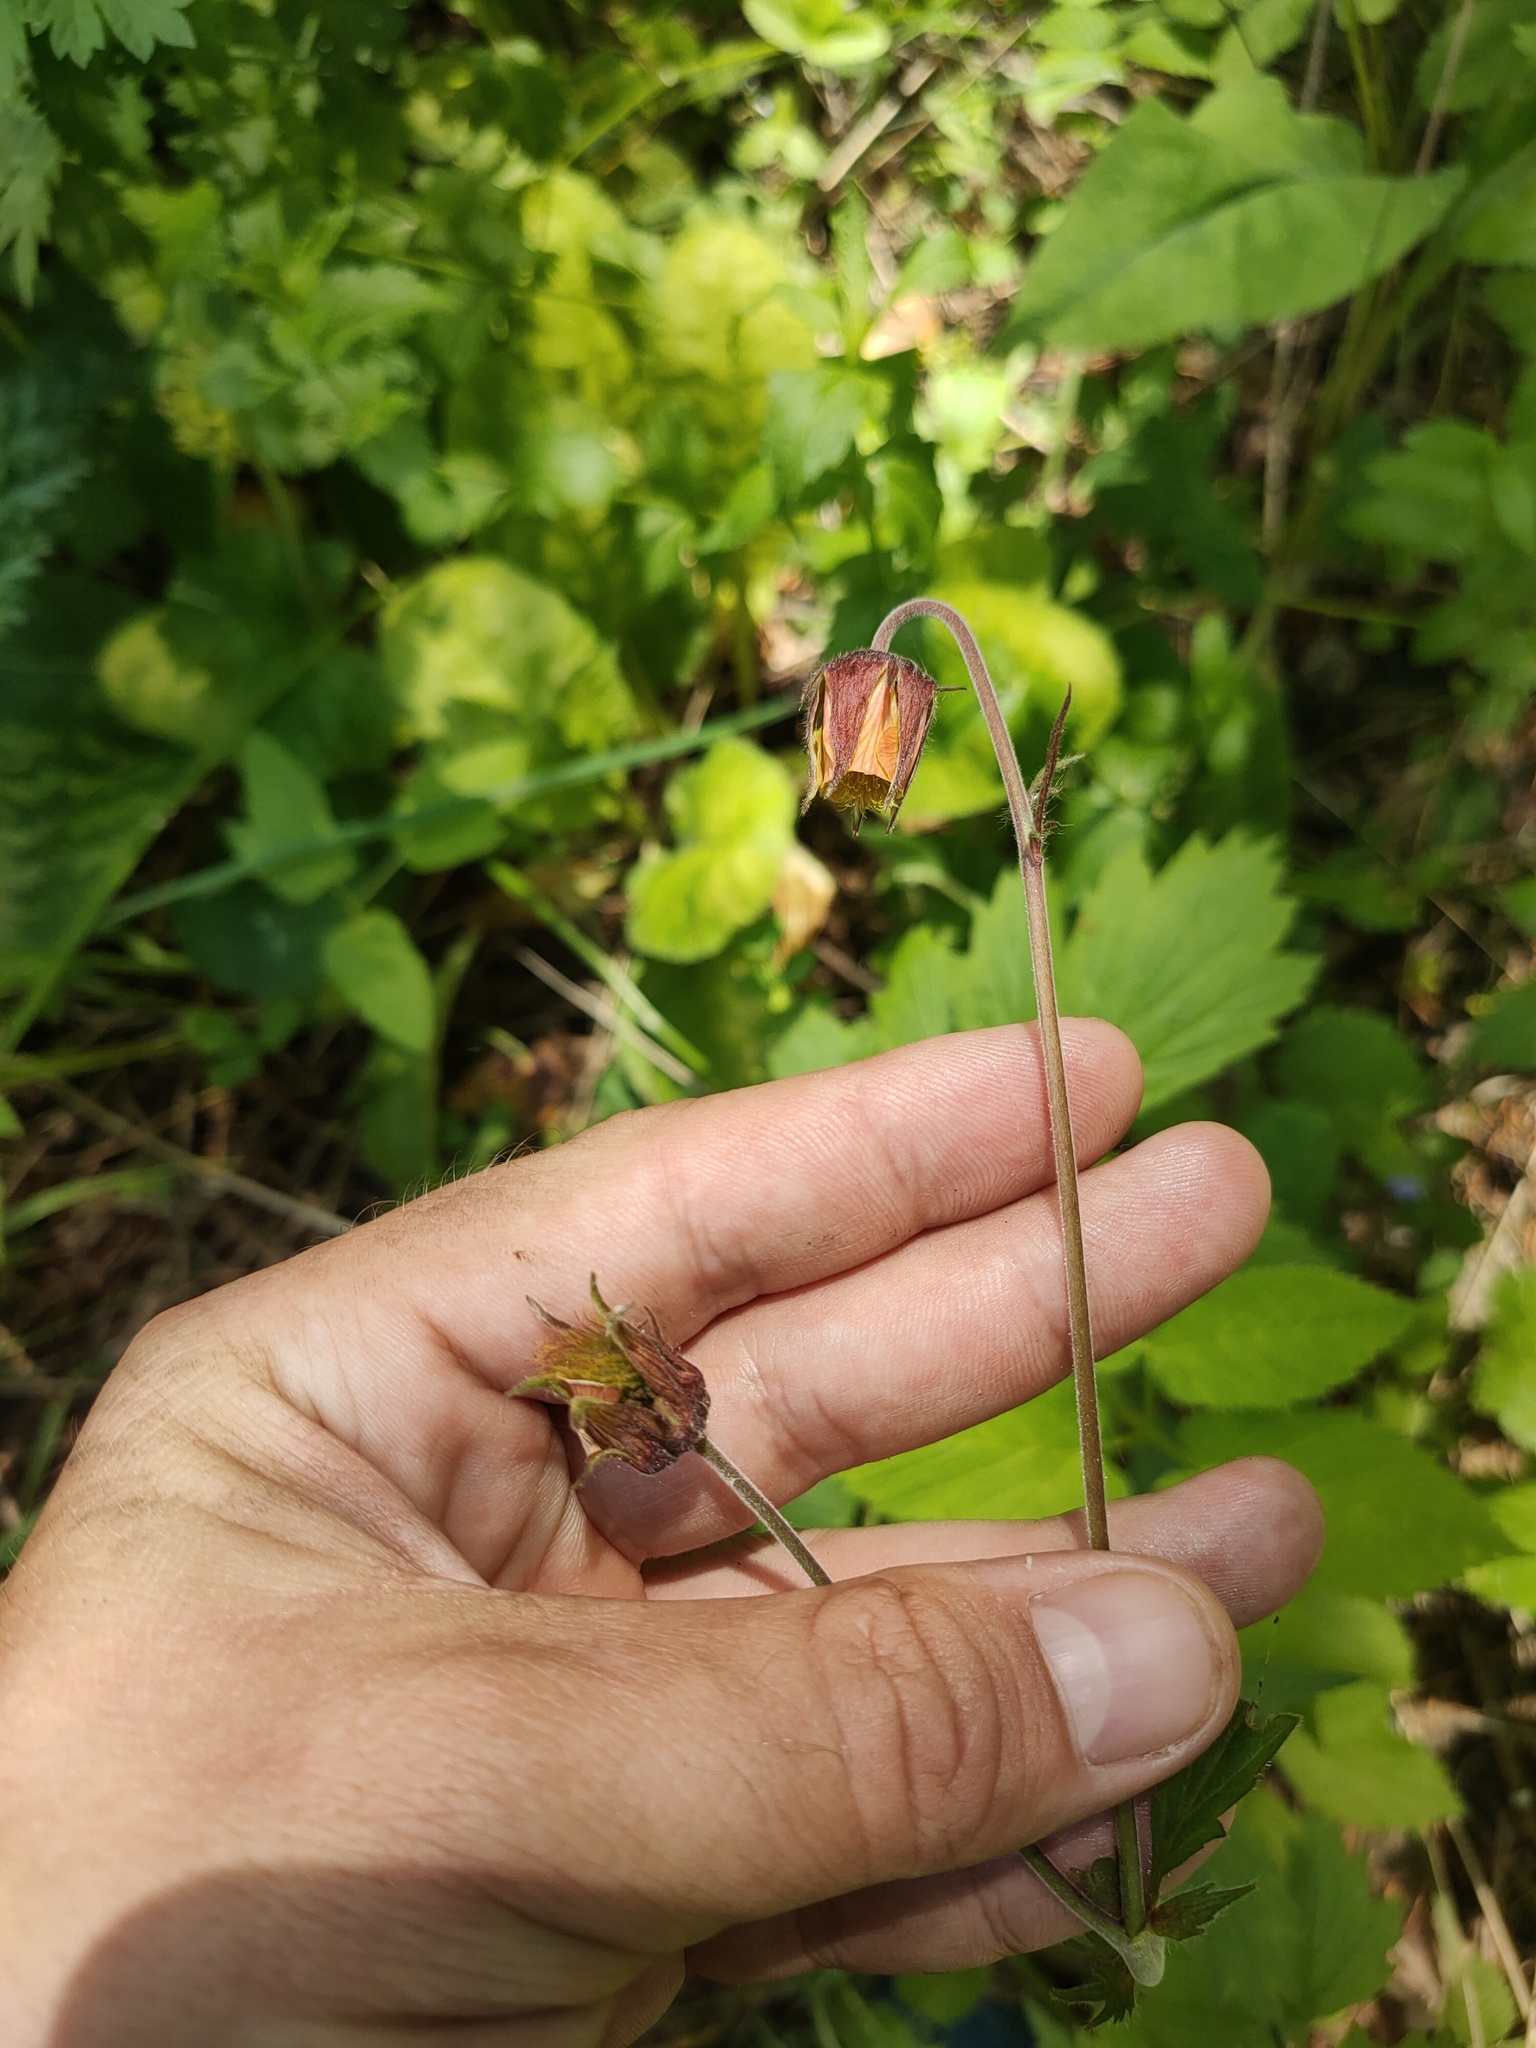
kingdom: Plantae
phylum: Tracheophyta
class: Magnoliopsida
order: Rosales
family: Rosaceae
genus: Geum
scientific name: Geum rivale
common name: Water avens
